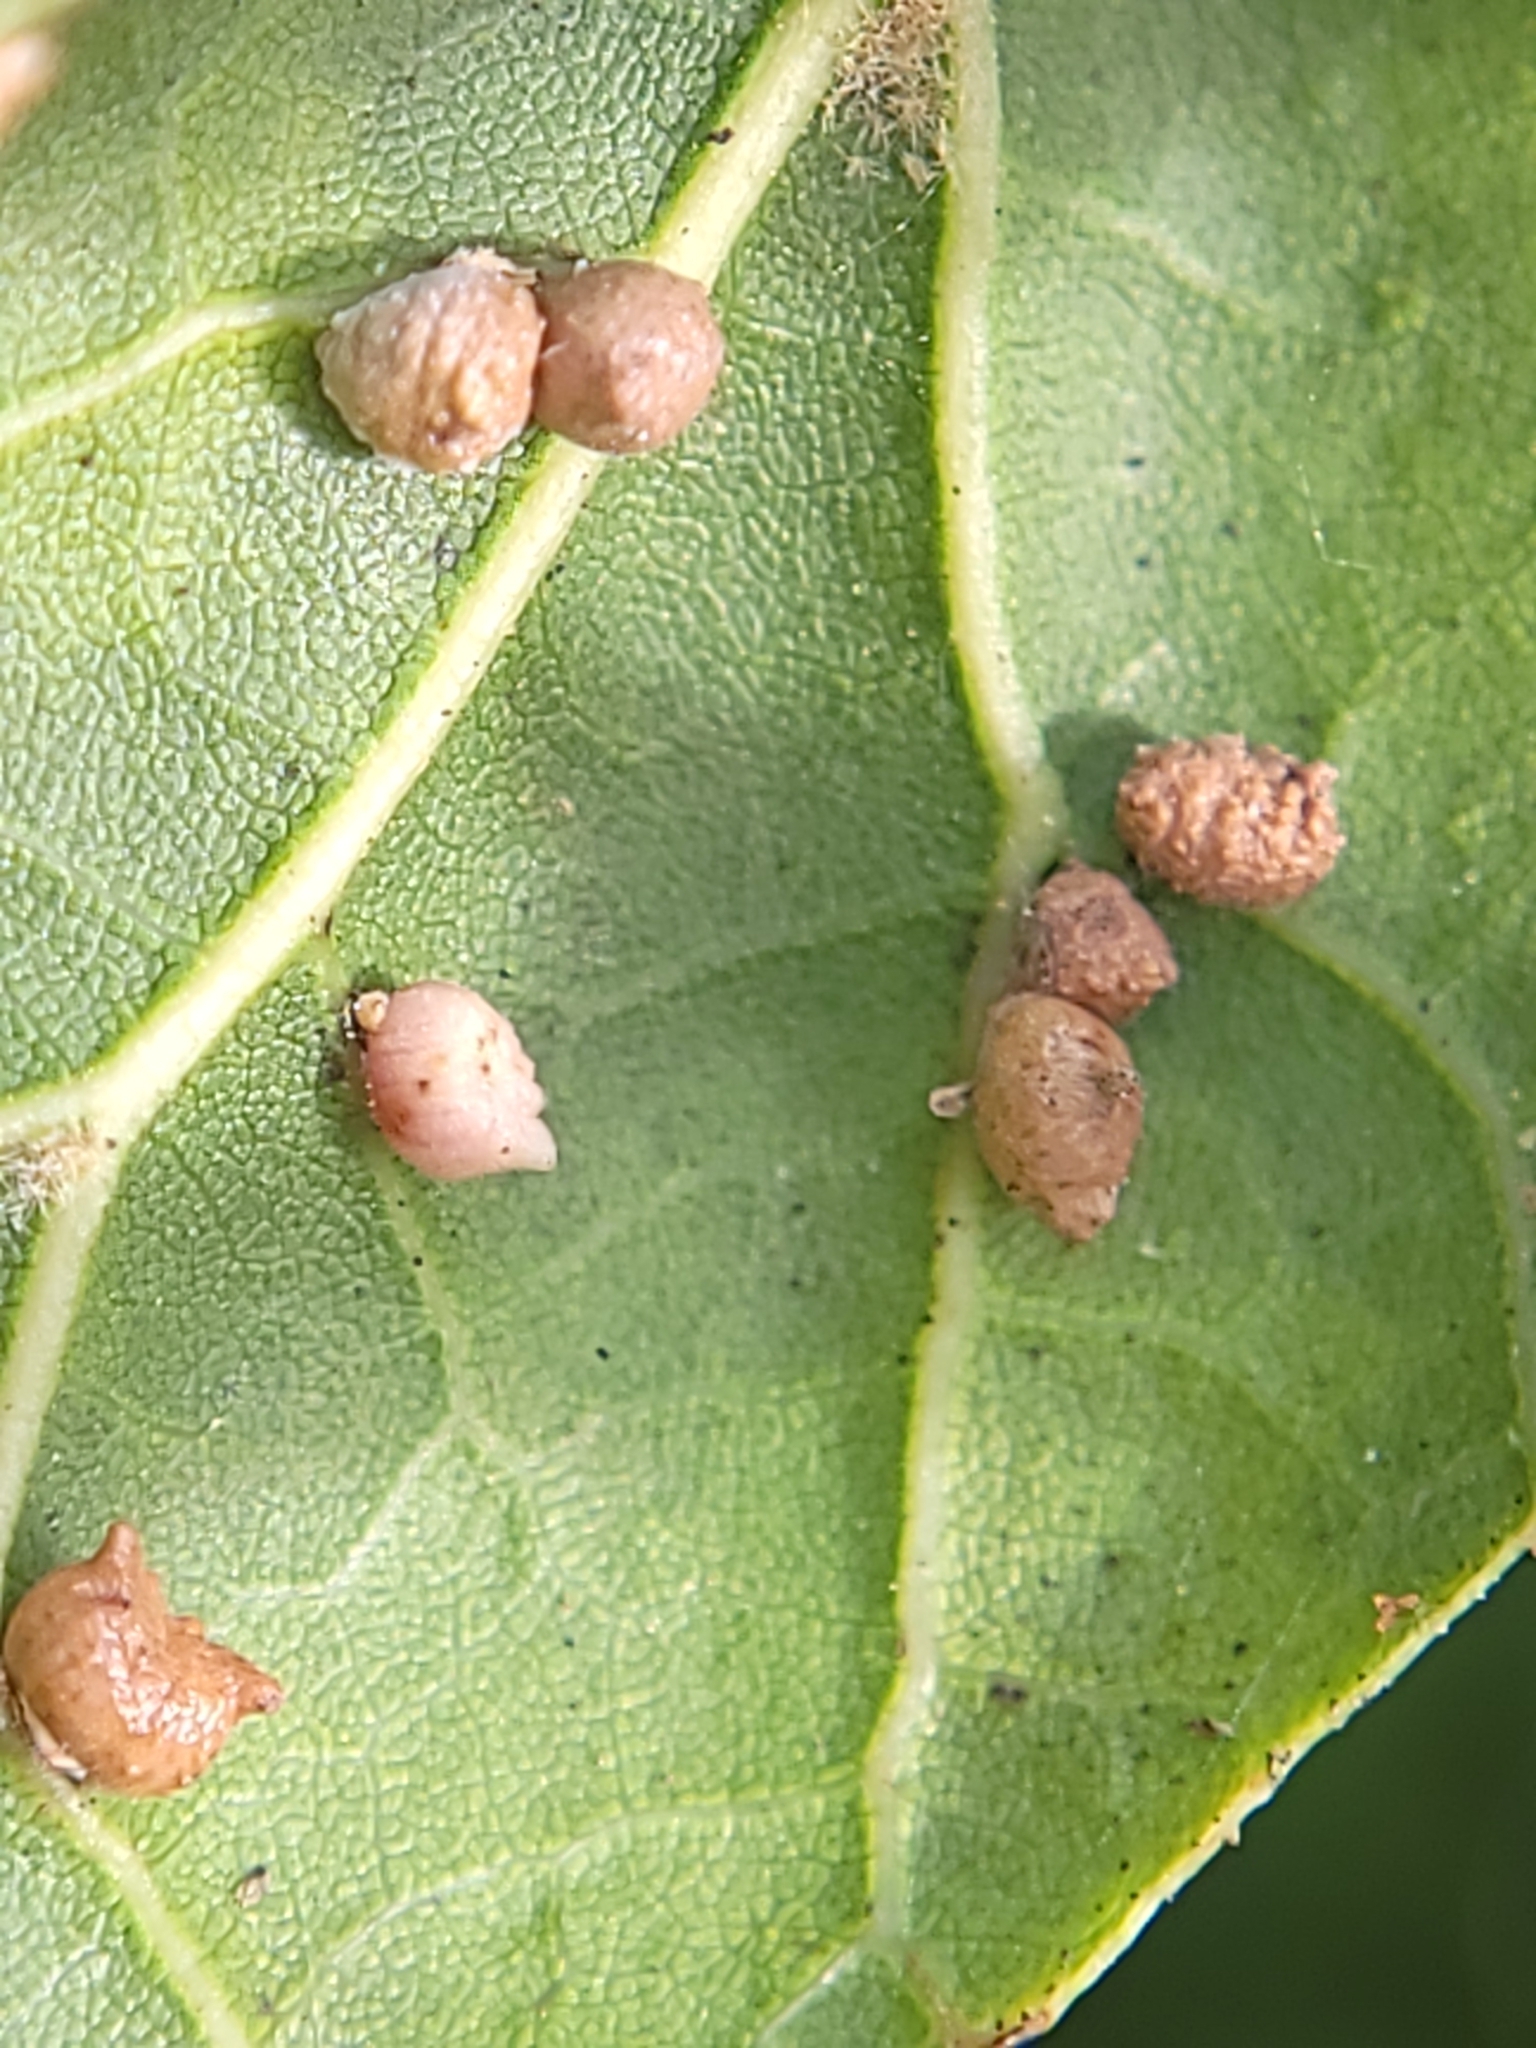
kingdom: Animalia
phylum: Arthropoda
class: Insecta
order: Hymenoptera
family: Cynipidae
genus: Dryocosmus
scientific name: Dryocosmus
